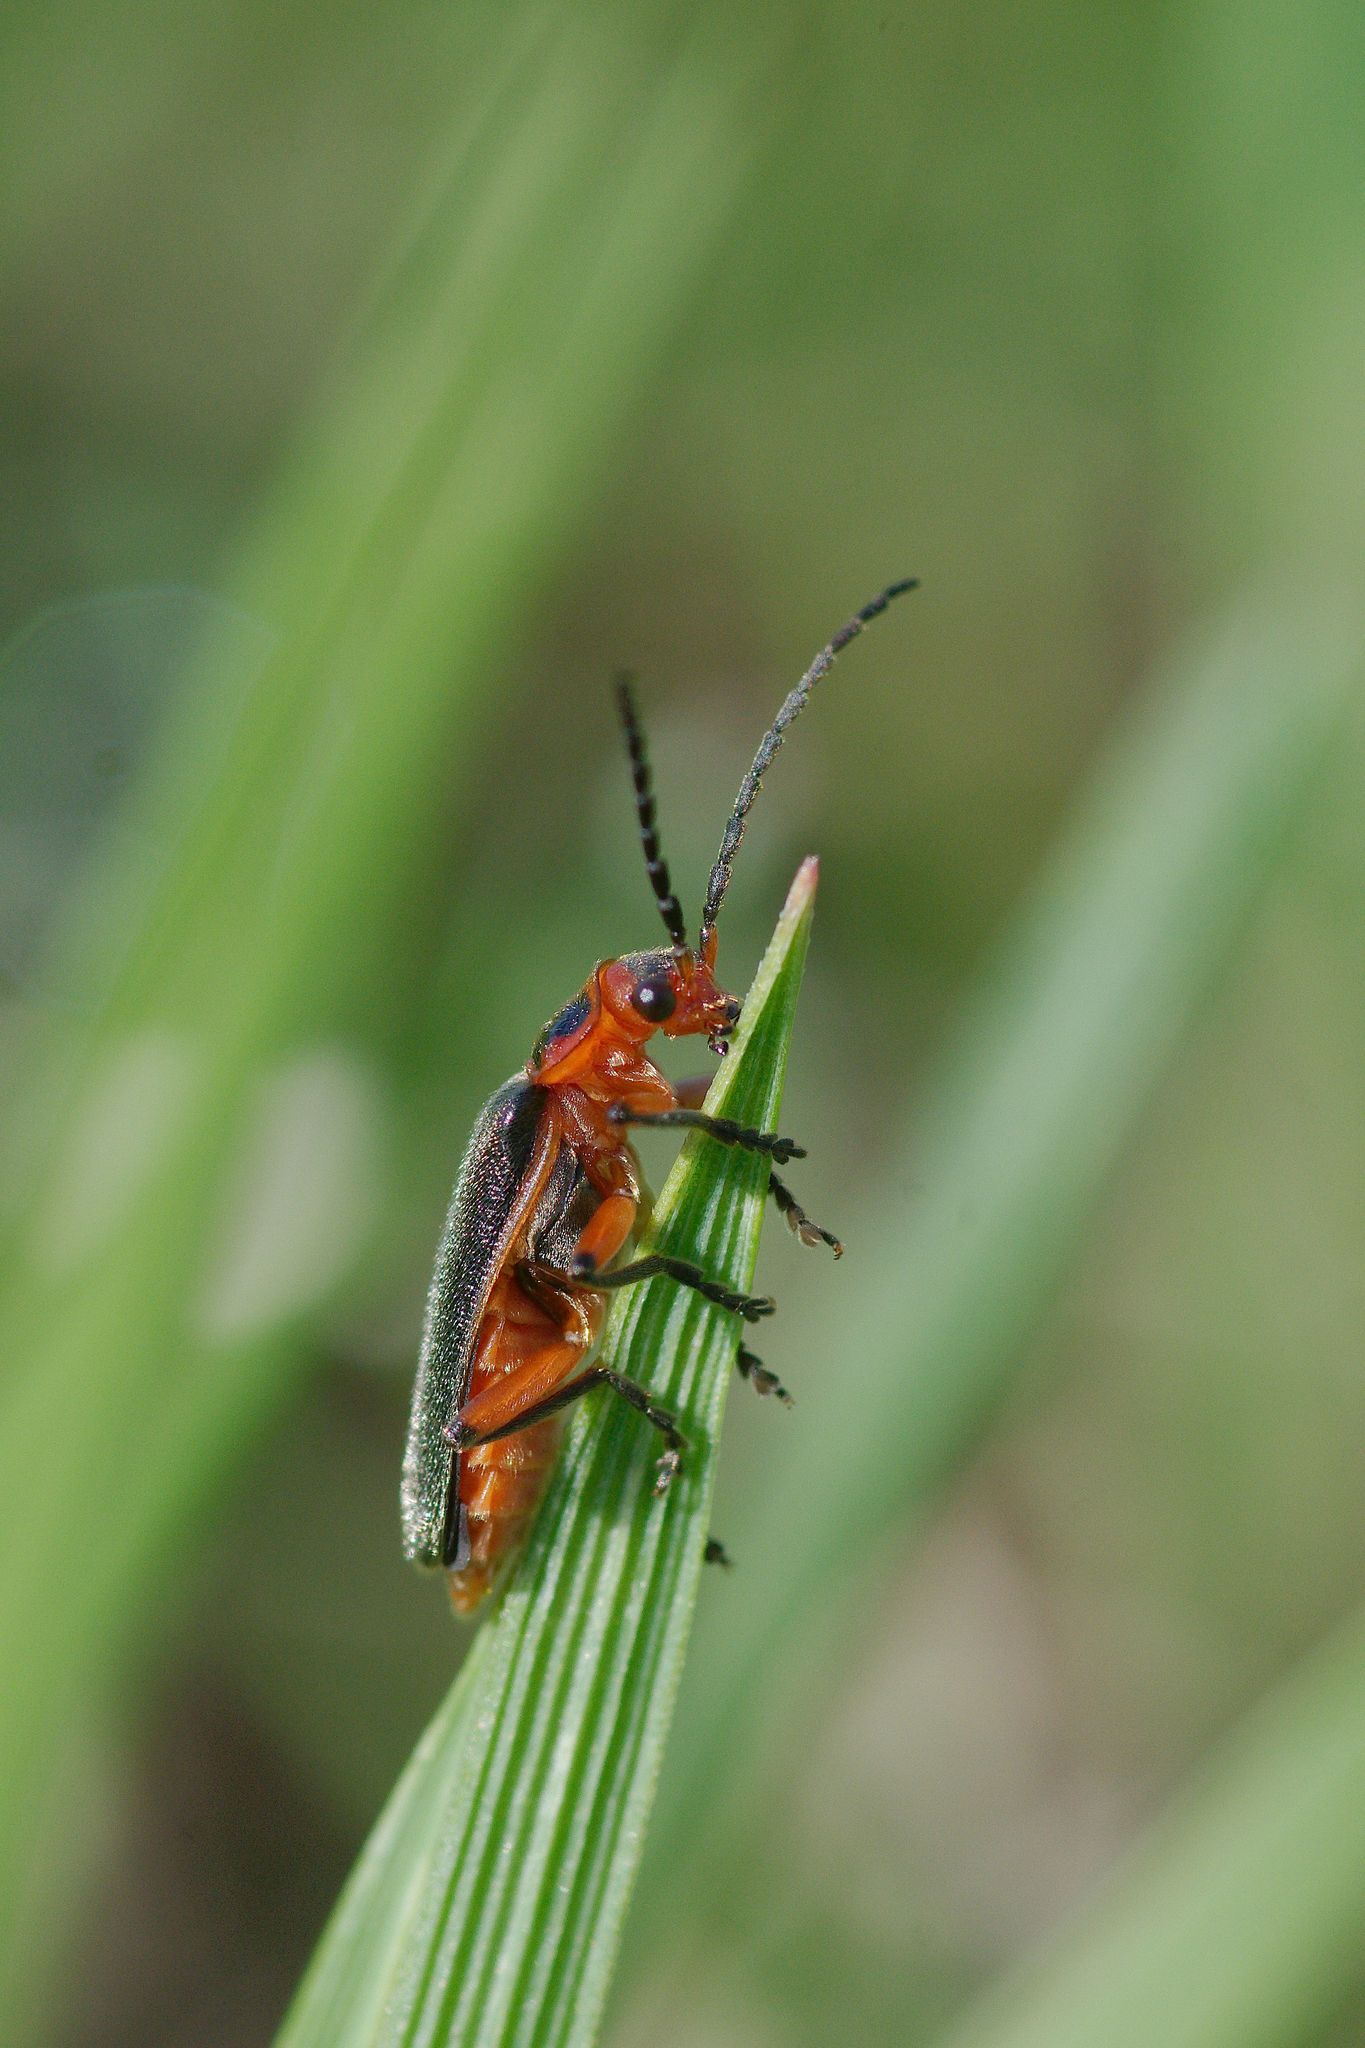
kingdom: Animalia
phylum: Arthropoda
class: Insecta
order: Coleoptera
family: Cantharidae
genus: Atalantycha
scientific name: Atalantycha bilineata
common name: Two-lined leatherwing
